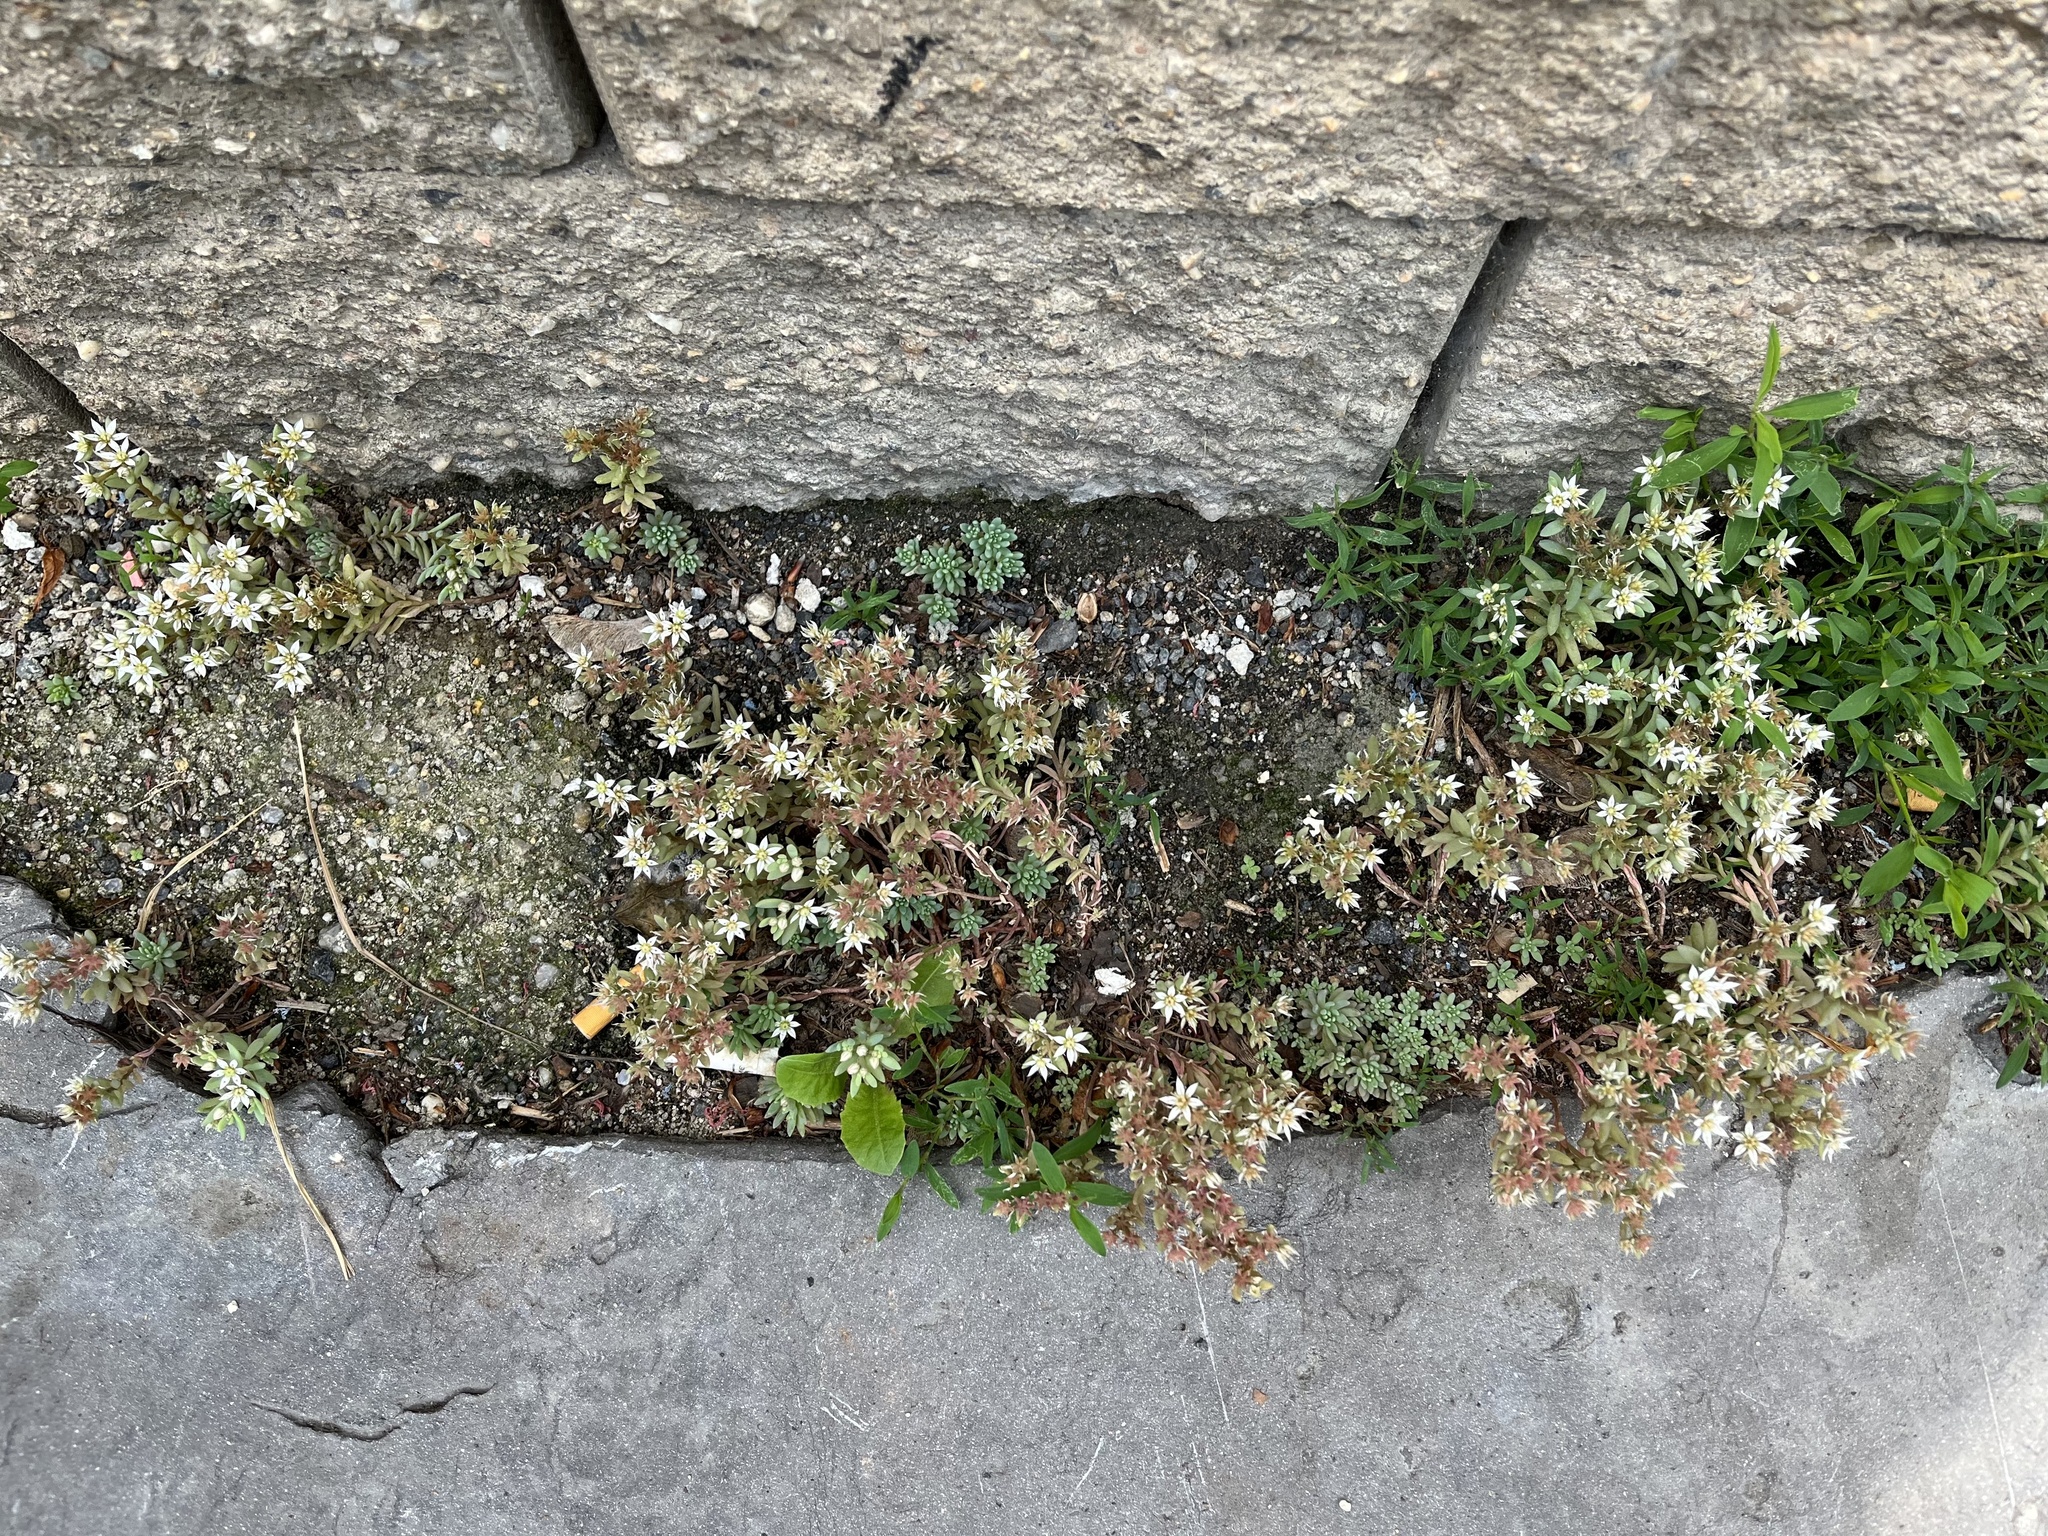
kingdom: Plantae
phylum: Tracheophyta
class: Magnoliopsida
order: Saxifragales
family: Crassulaceae
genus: Sedum
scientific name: Sedum hispanicum
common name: Spanish stonecrop
